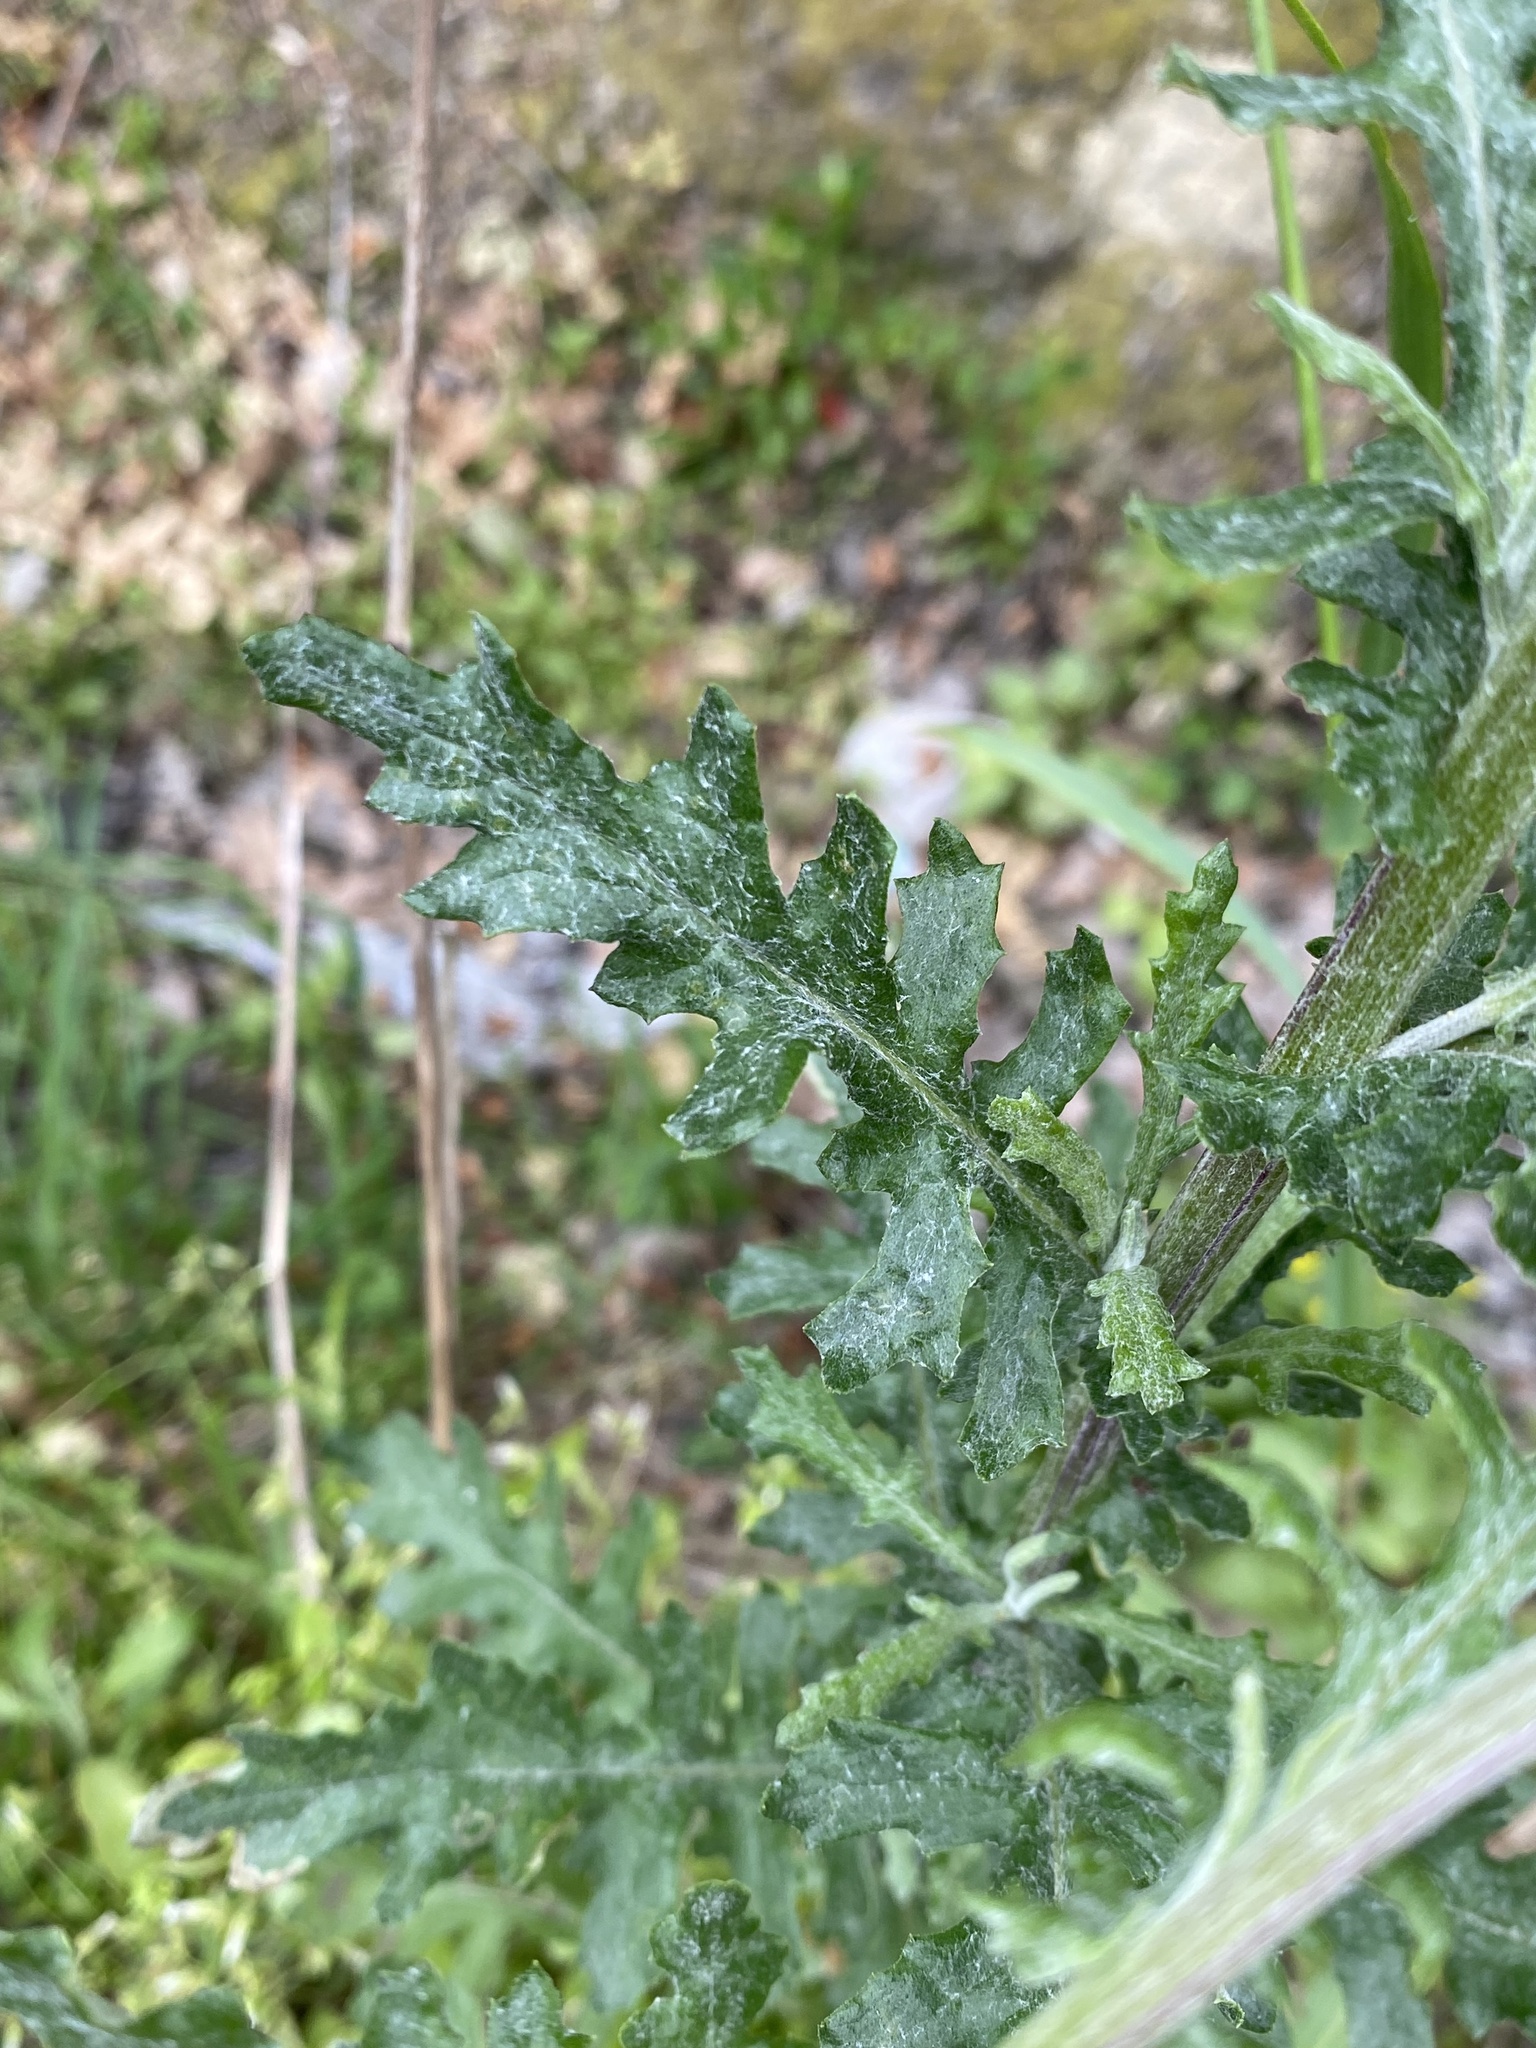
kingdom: Plantae
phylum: Tracheophyta
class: Magnoliopsida
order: Asterales
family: Asteraceae
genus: Senecio
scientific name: Senecio glomeratus
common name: Cutleaf burnweed
